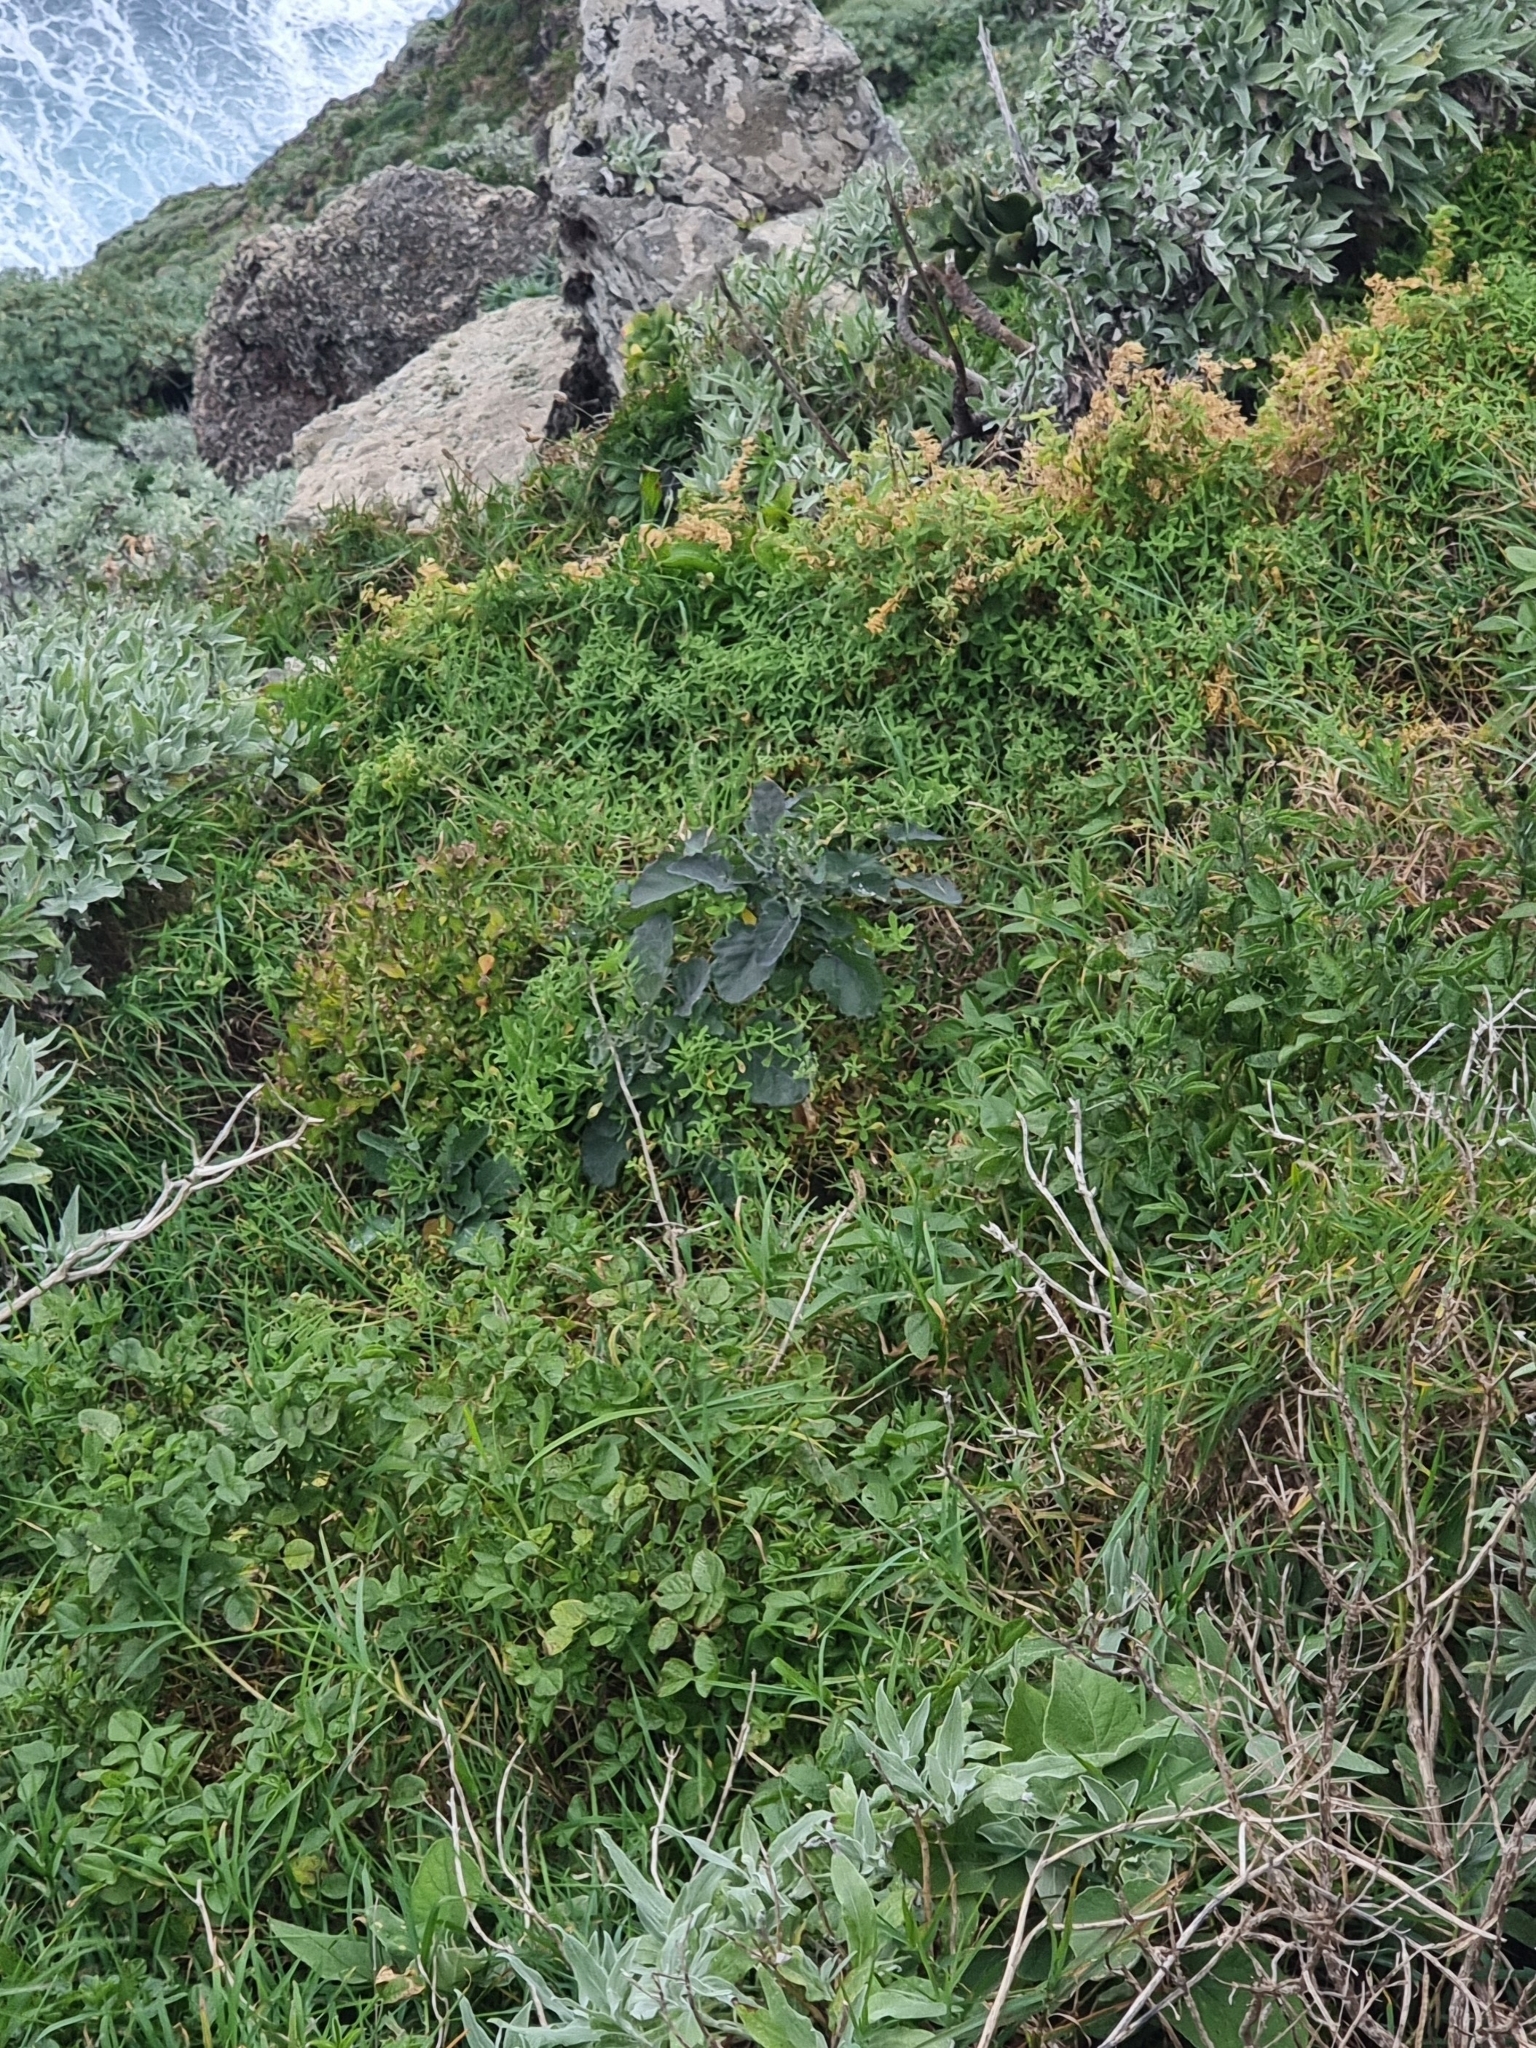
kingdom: Plantae
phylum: Tracheophyta
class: Magnoliopsida
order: Brassicales
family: Brassicaceae
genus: Crambe
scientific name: Crambe fruticosa
